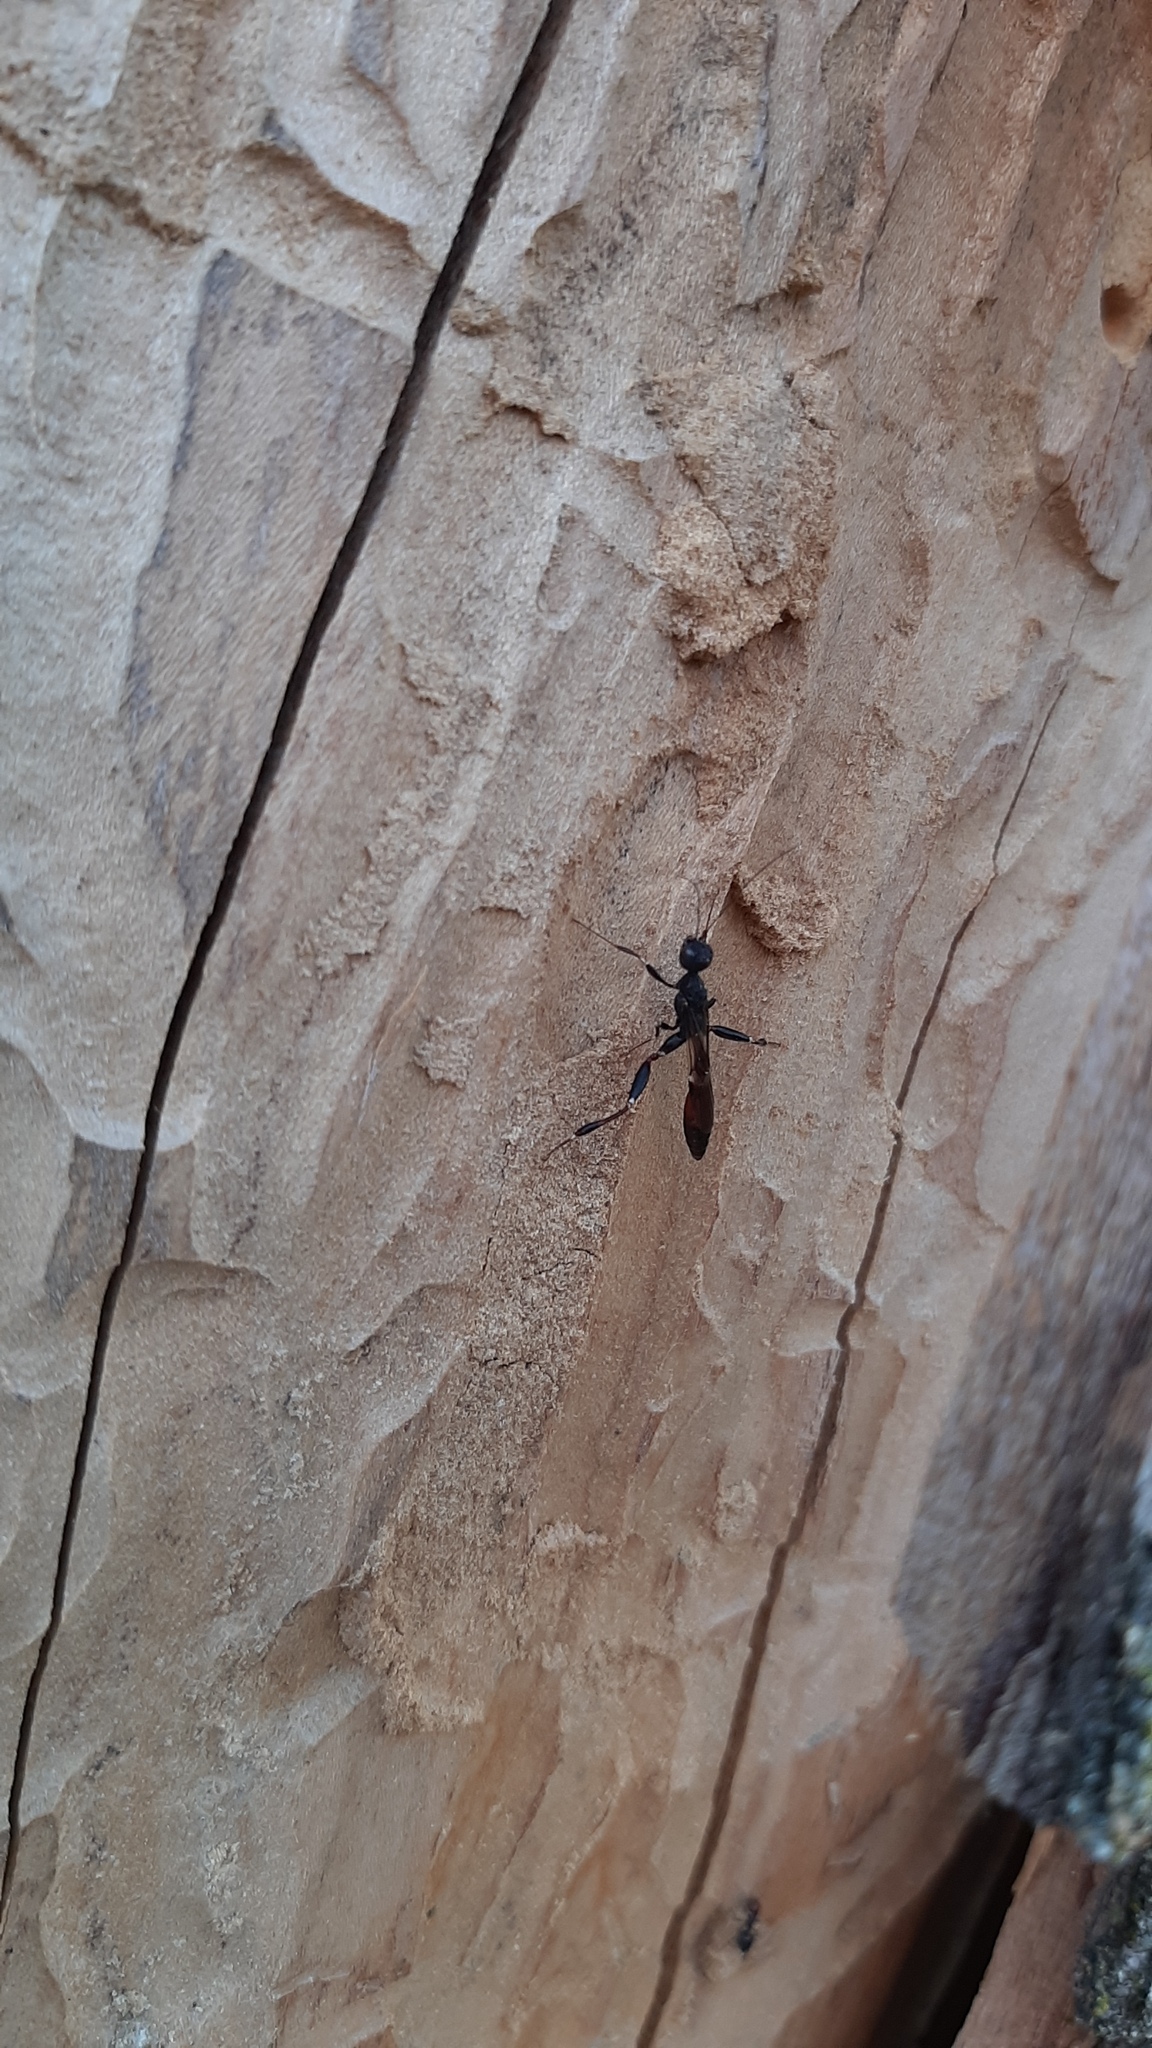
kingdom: Animalia
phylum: Arthropoda
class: Insecta
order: Hymenoptera
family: Stephanidae
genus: Stephanus
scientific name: Stephanus serrator
